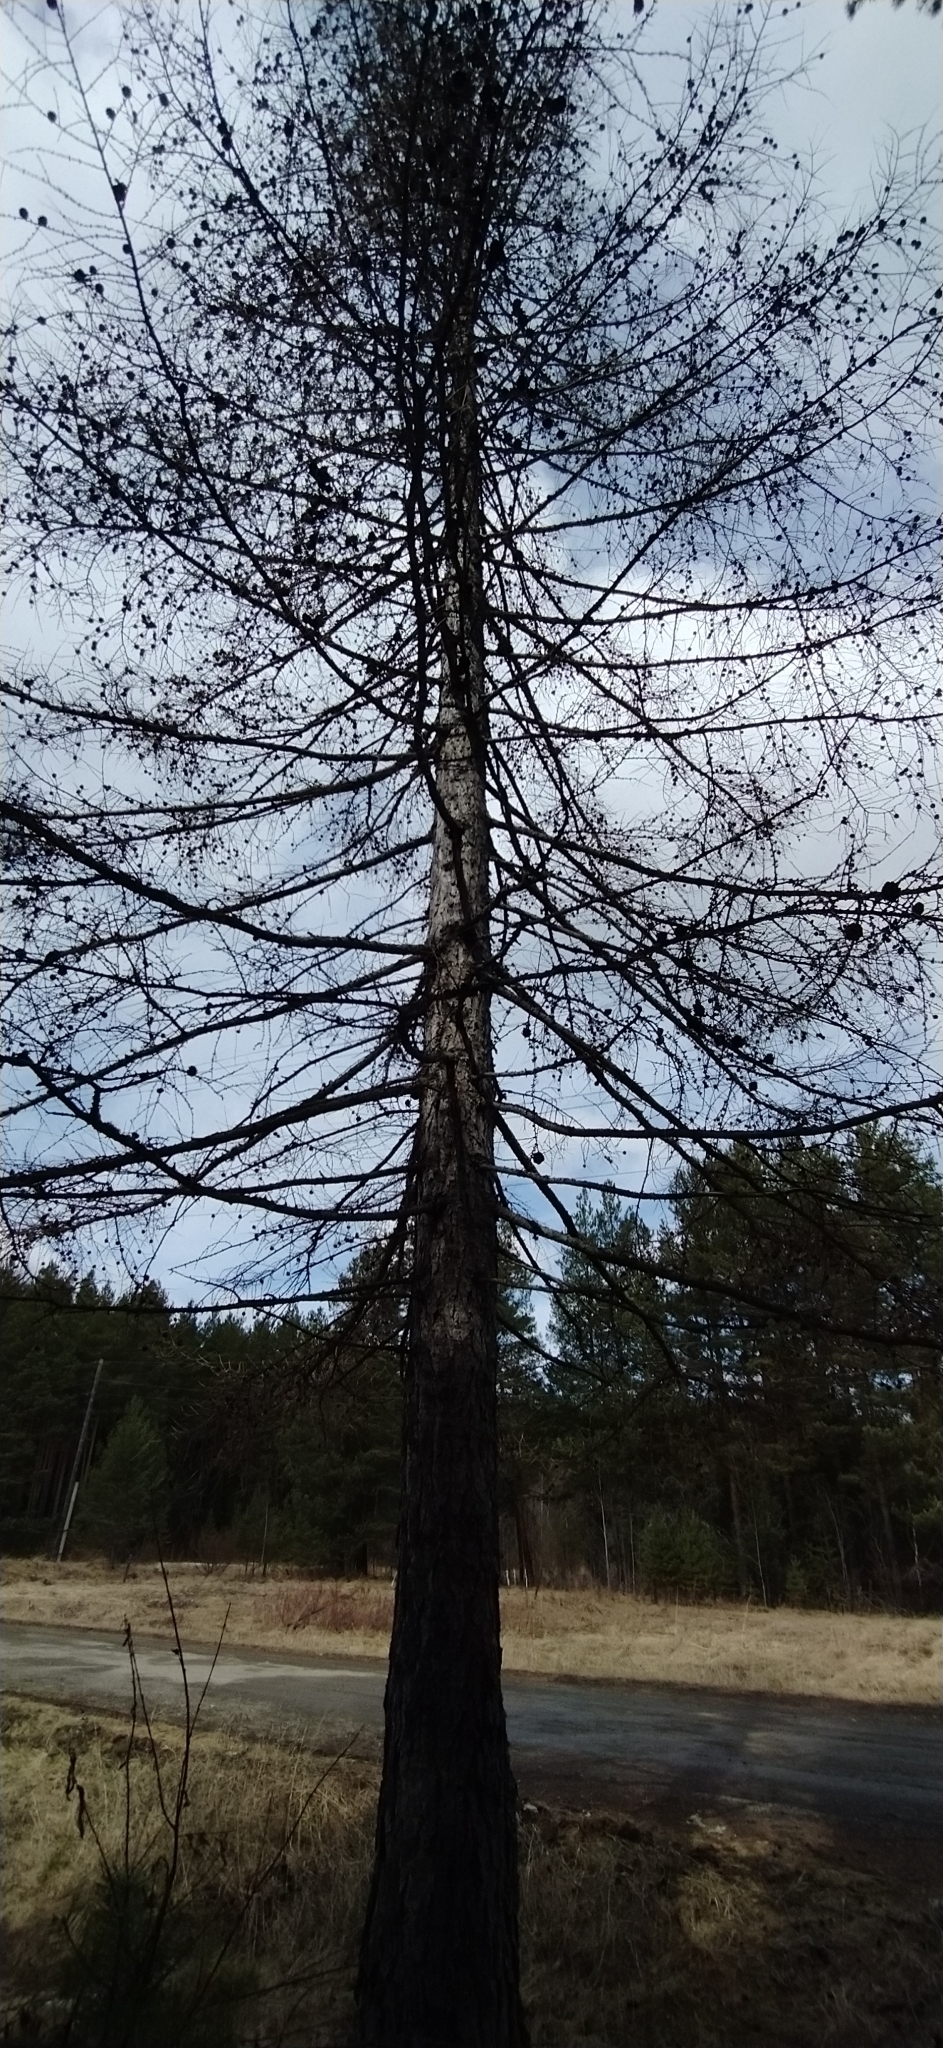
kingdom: Plantae
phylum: Tracheophyta
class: Pinopsida
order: Pinales
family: Pinaceae
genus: Larix
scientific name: Larix sibirica
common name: Siberian larch
